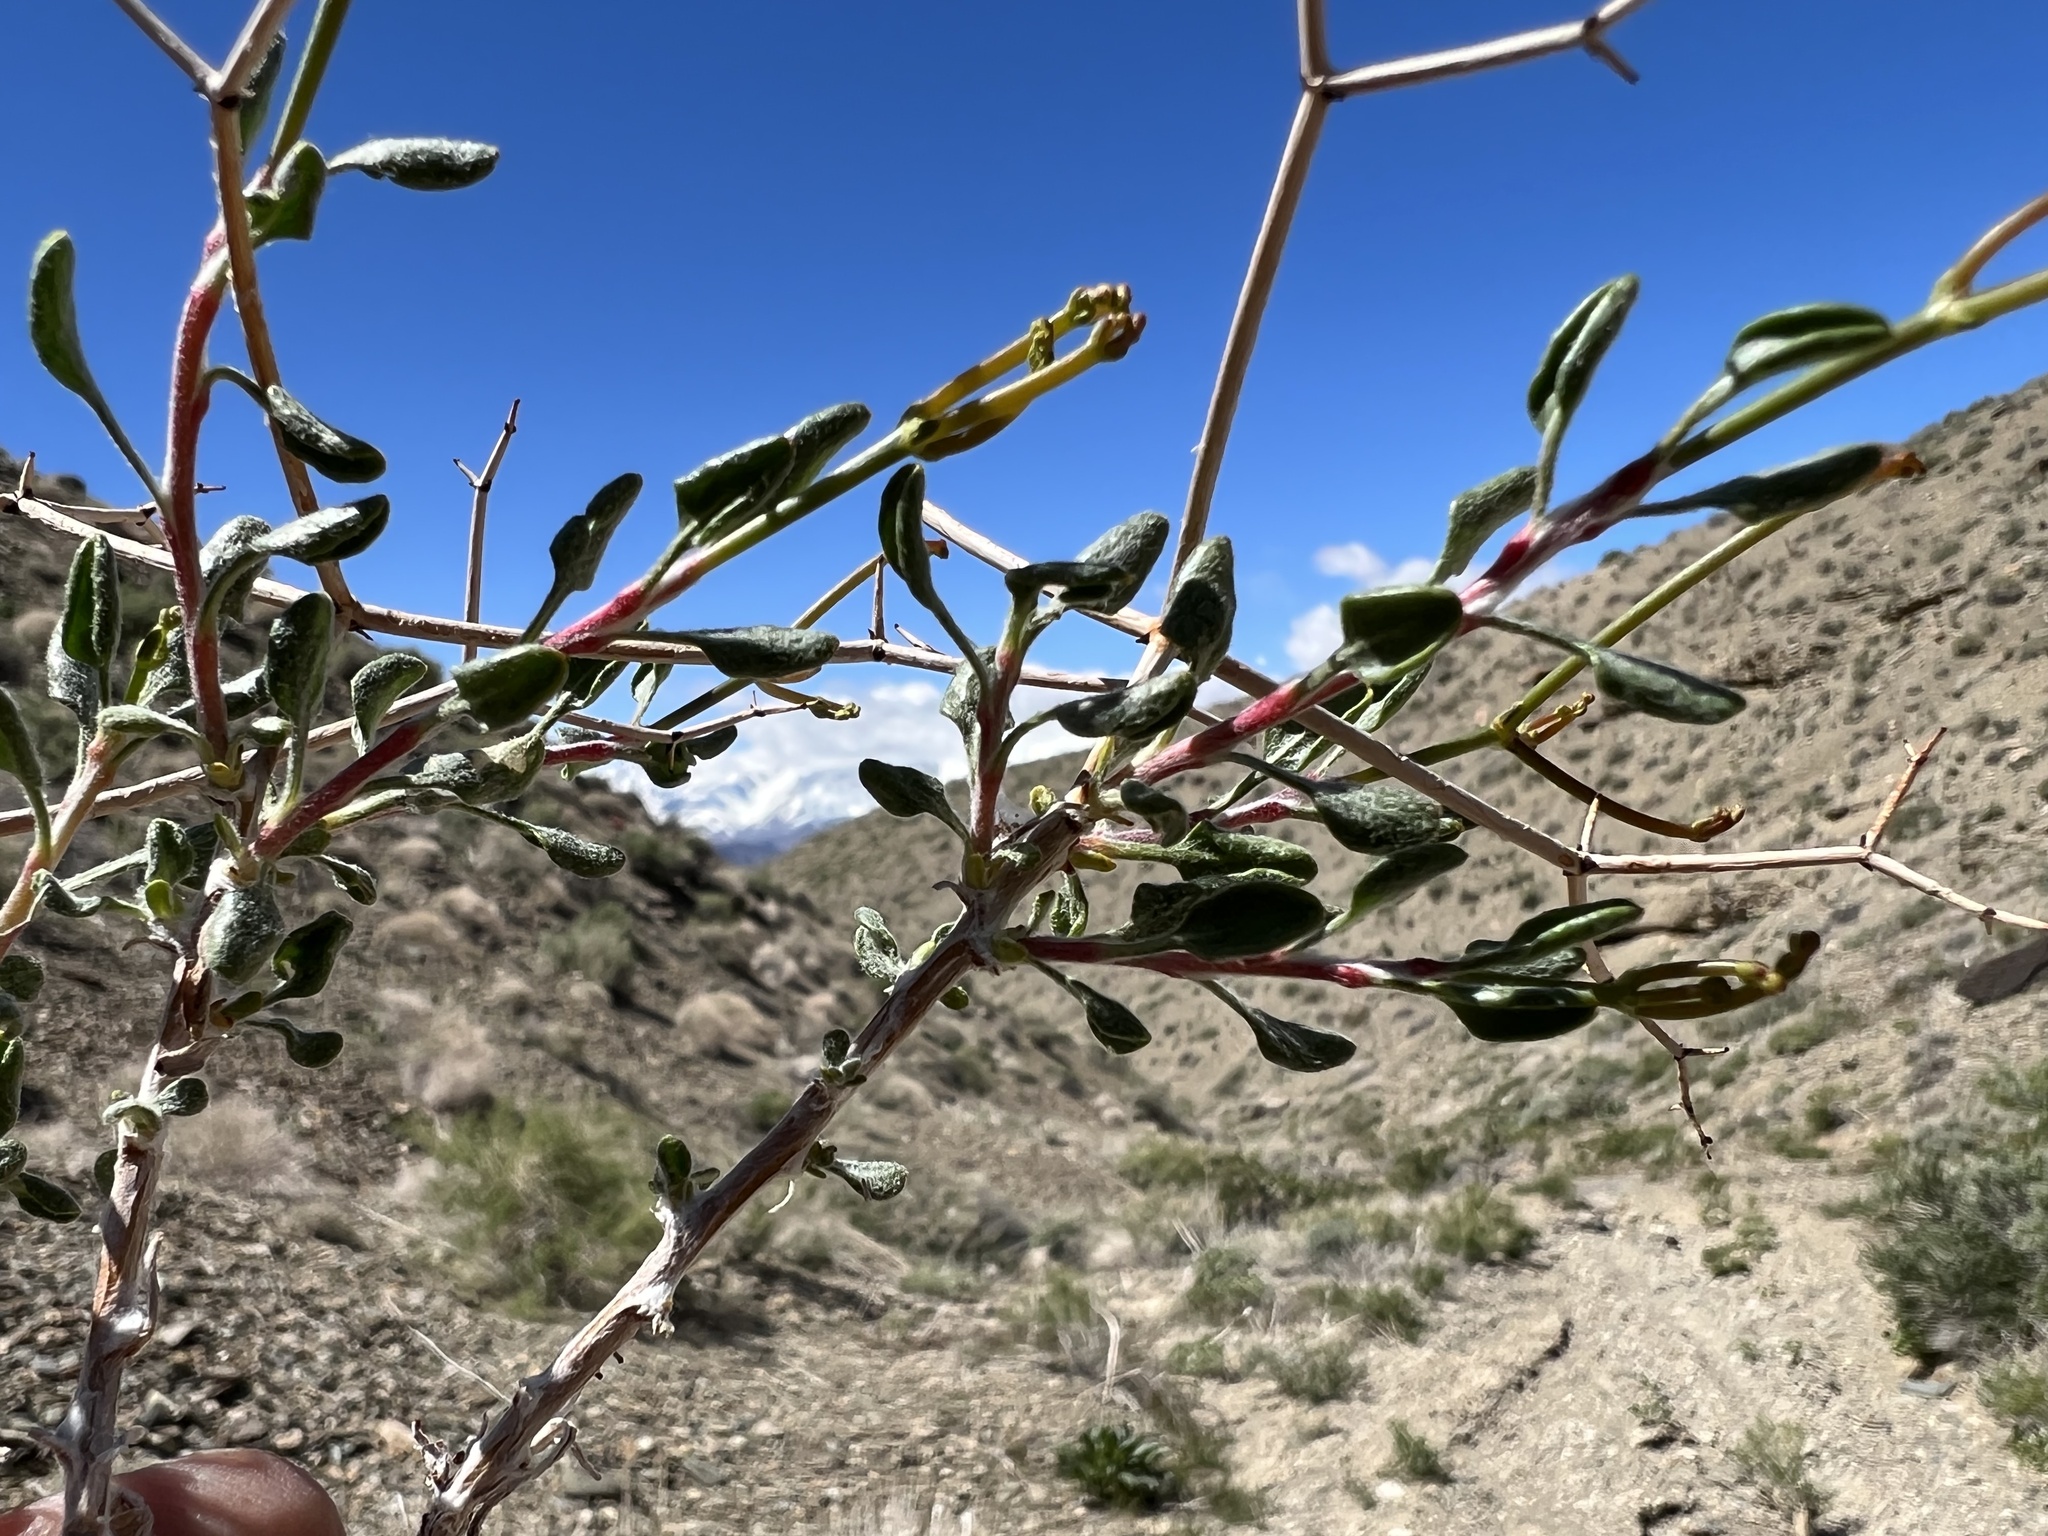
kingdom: Plantae
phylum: Tracheophyta
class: Magnoliopsida
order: Caryophyllales
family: Polygonaceae
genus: Eriogonum
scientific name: Eriogonum heermannii
